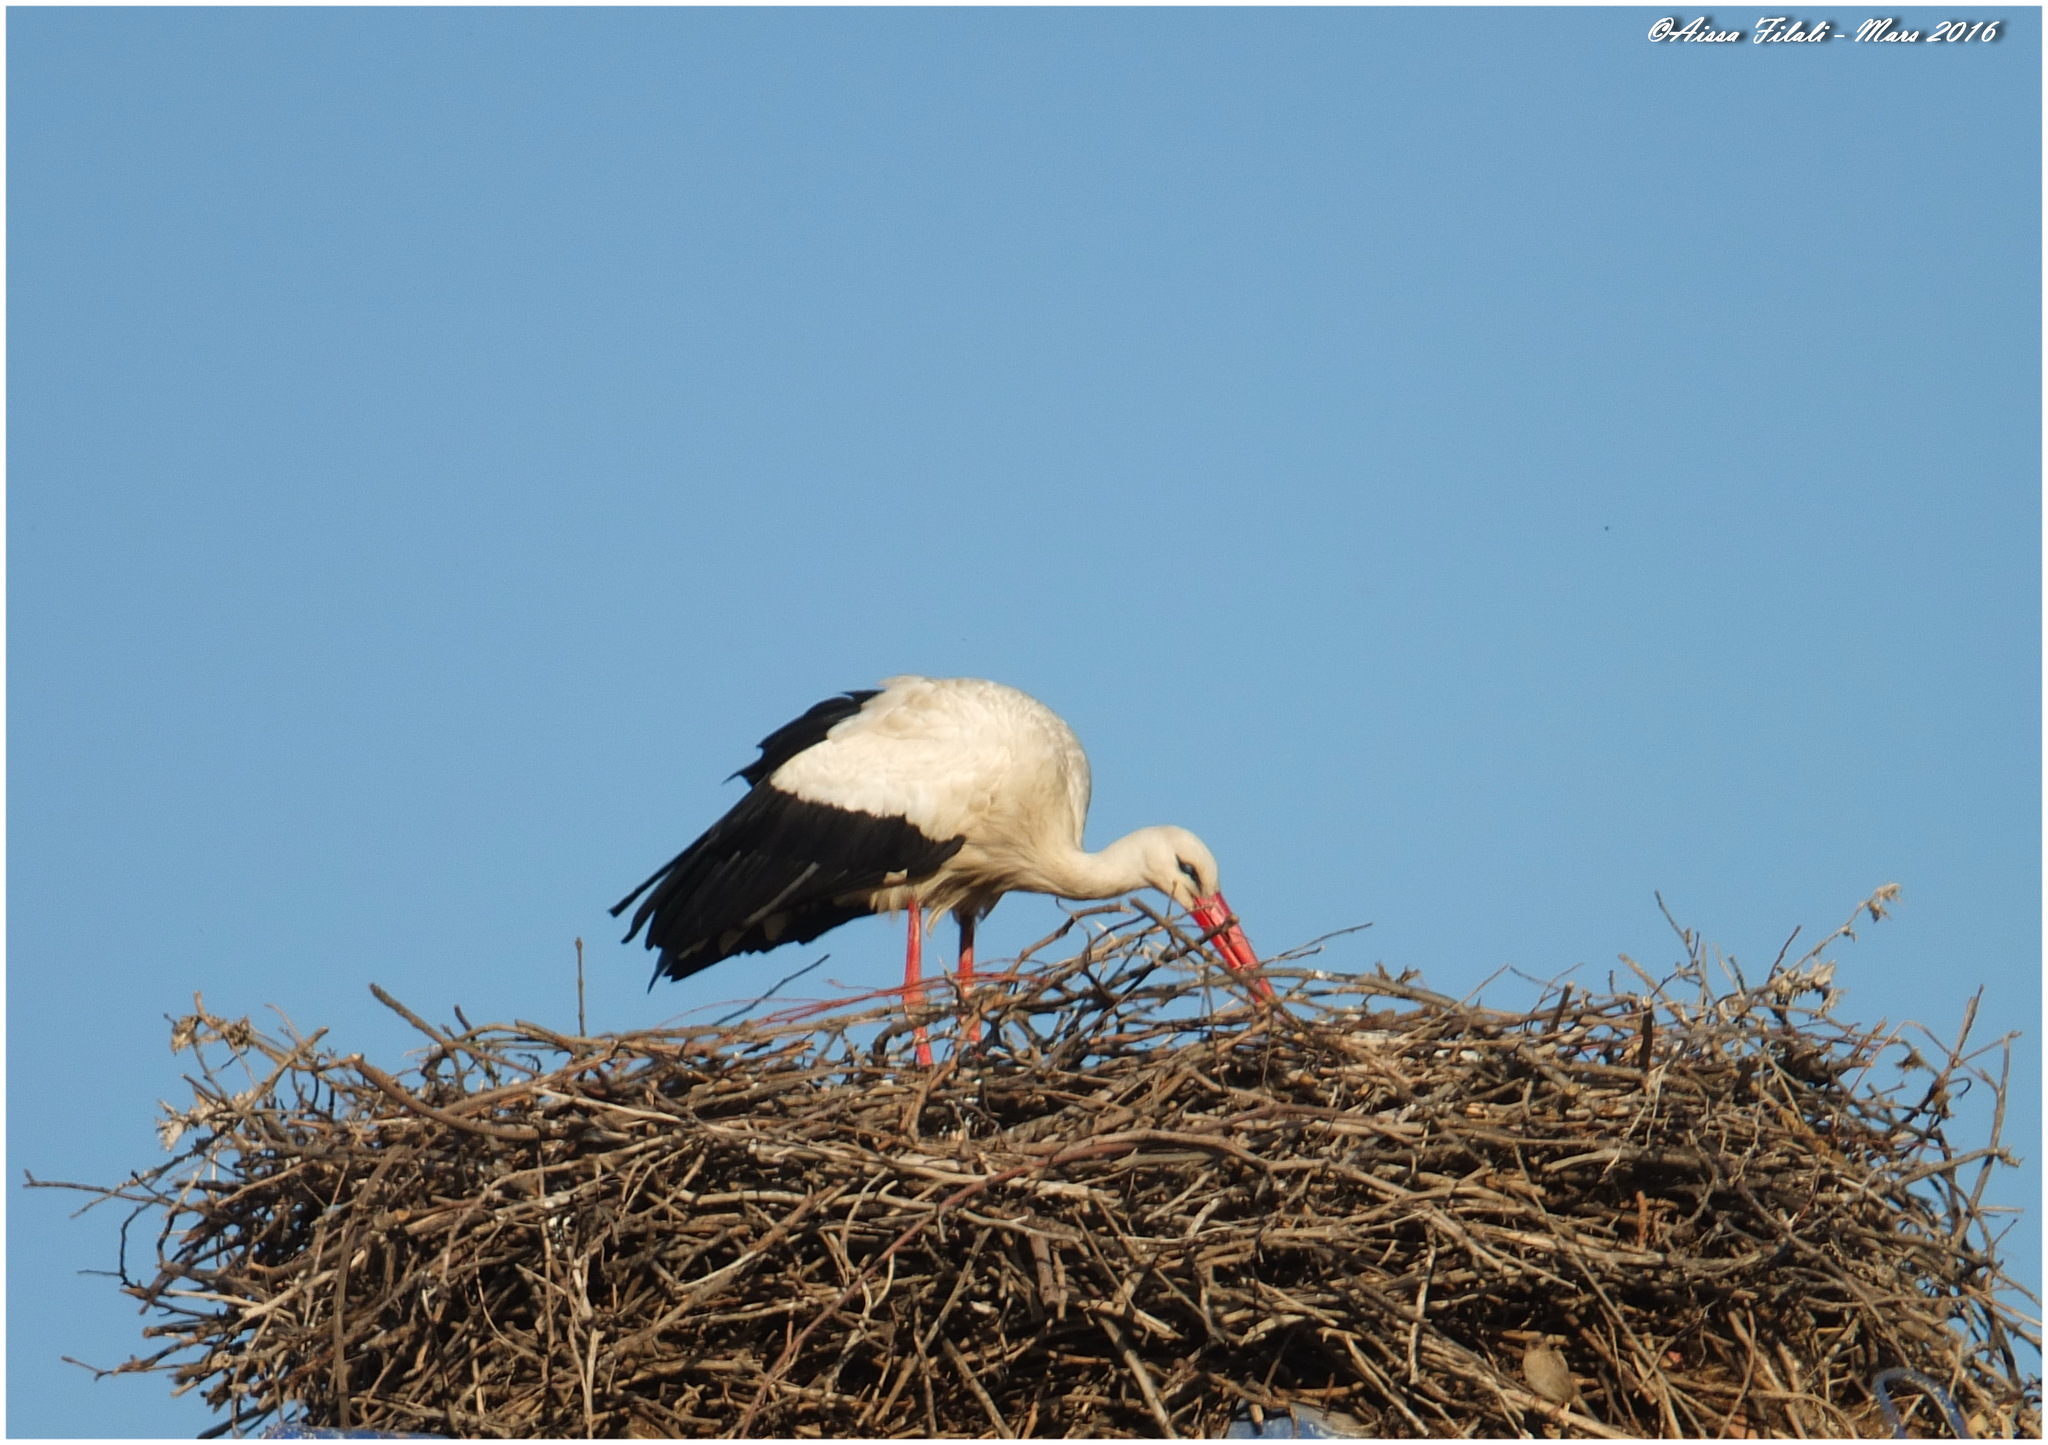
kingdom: Animalia
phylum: Chordata
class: Aves
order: Ciconiiformes
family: Ciconiidae
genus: Ciconia
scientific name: Ciconia ciconia
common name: White stork
